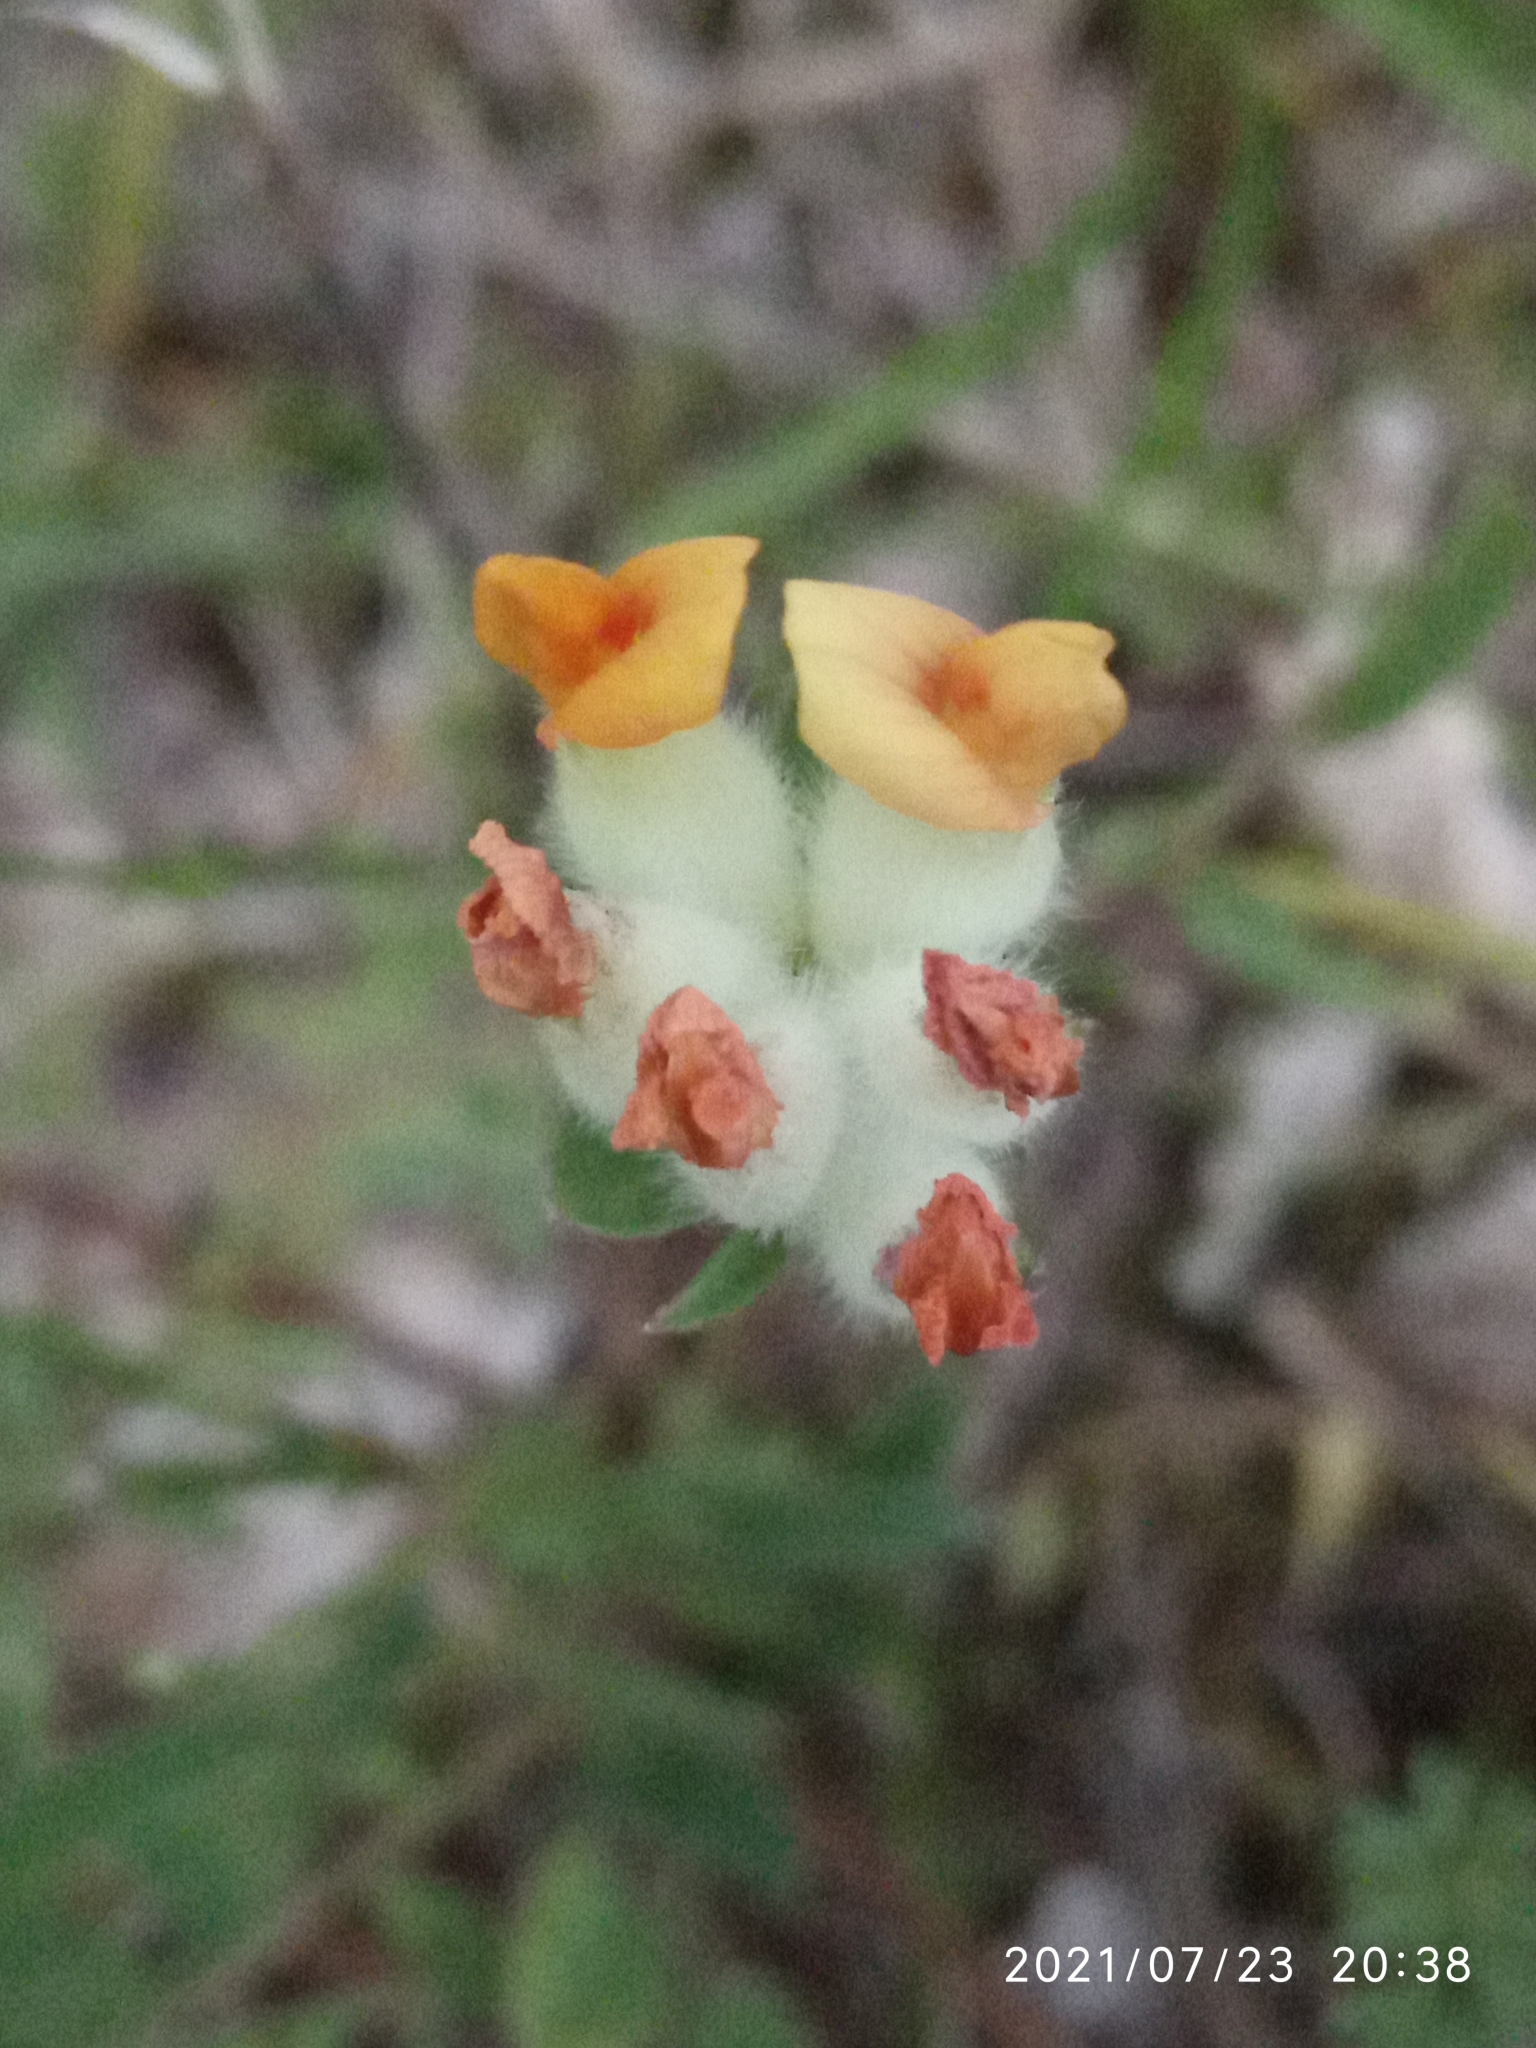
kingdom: Plantae
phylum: Tracheophyta
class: Magnoliopsida
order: Fabales
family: Fabaceae
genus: Anthyllis
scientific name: Anthyllis vulneraria
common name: Kidney vetch
